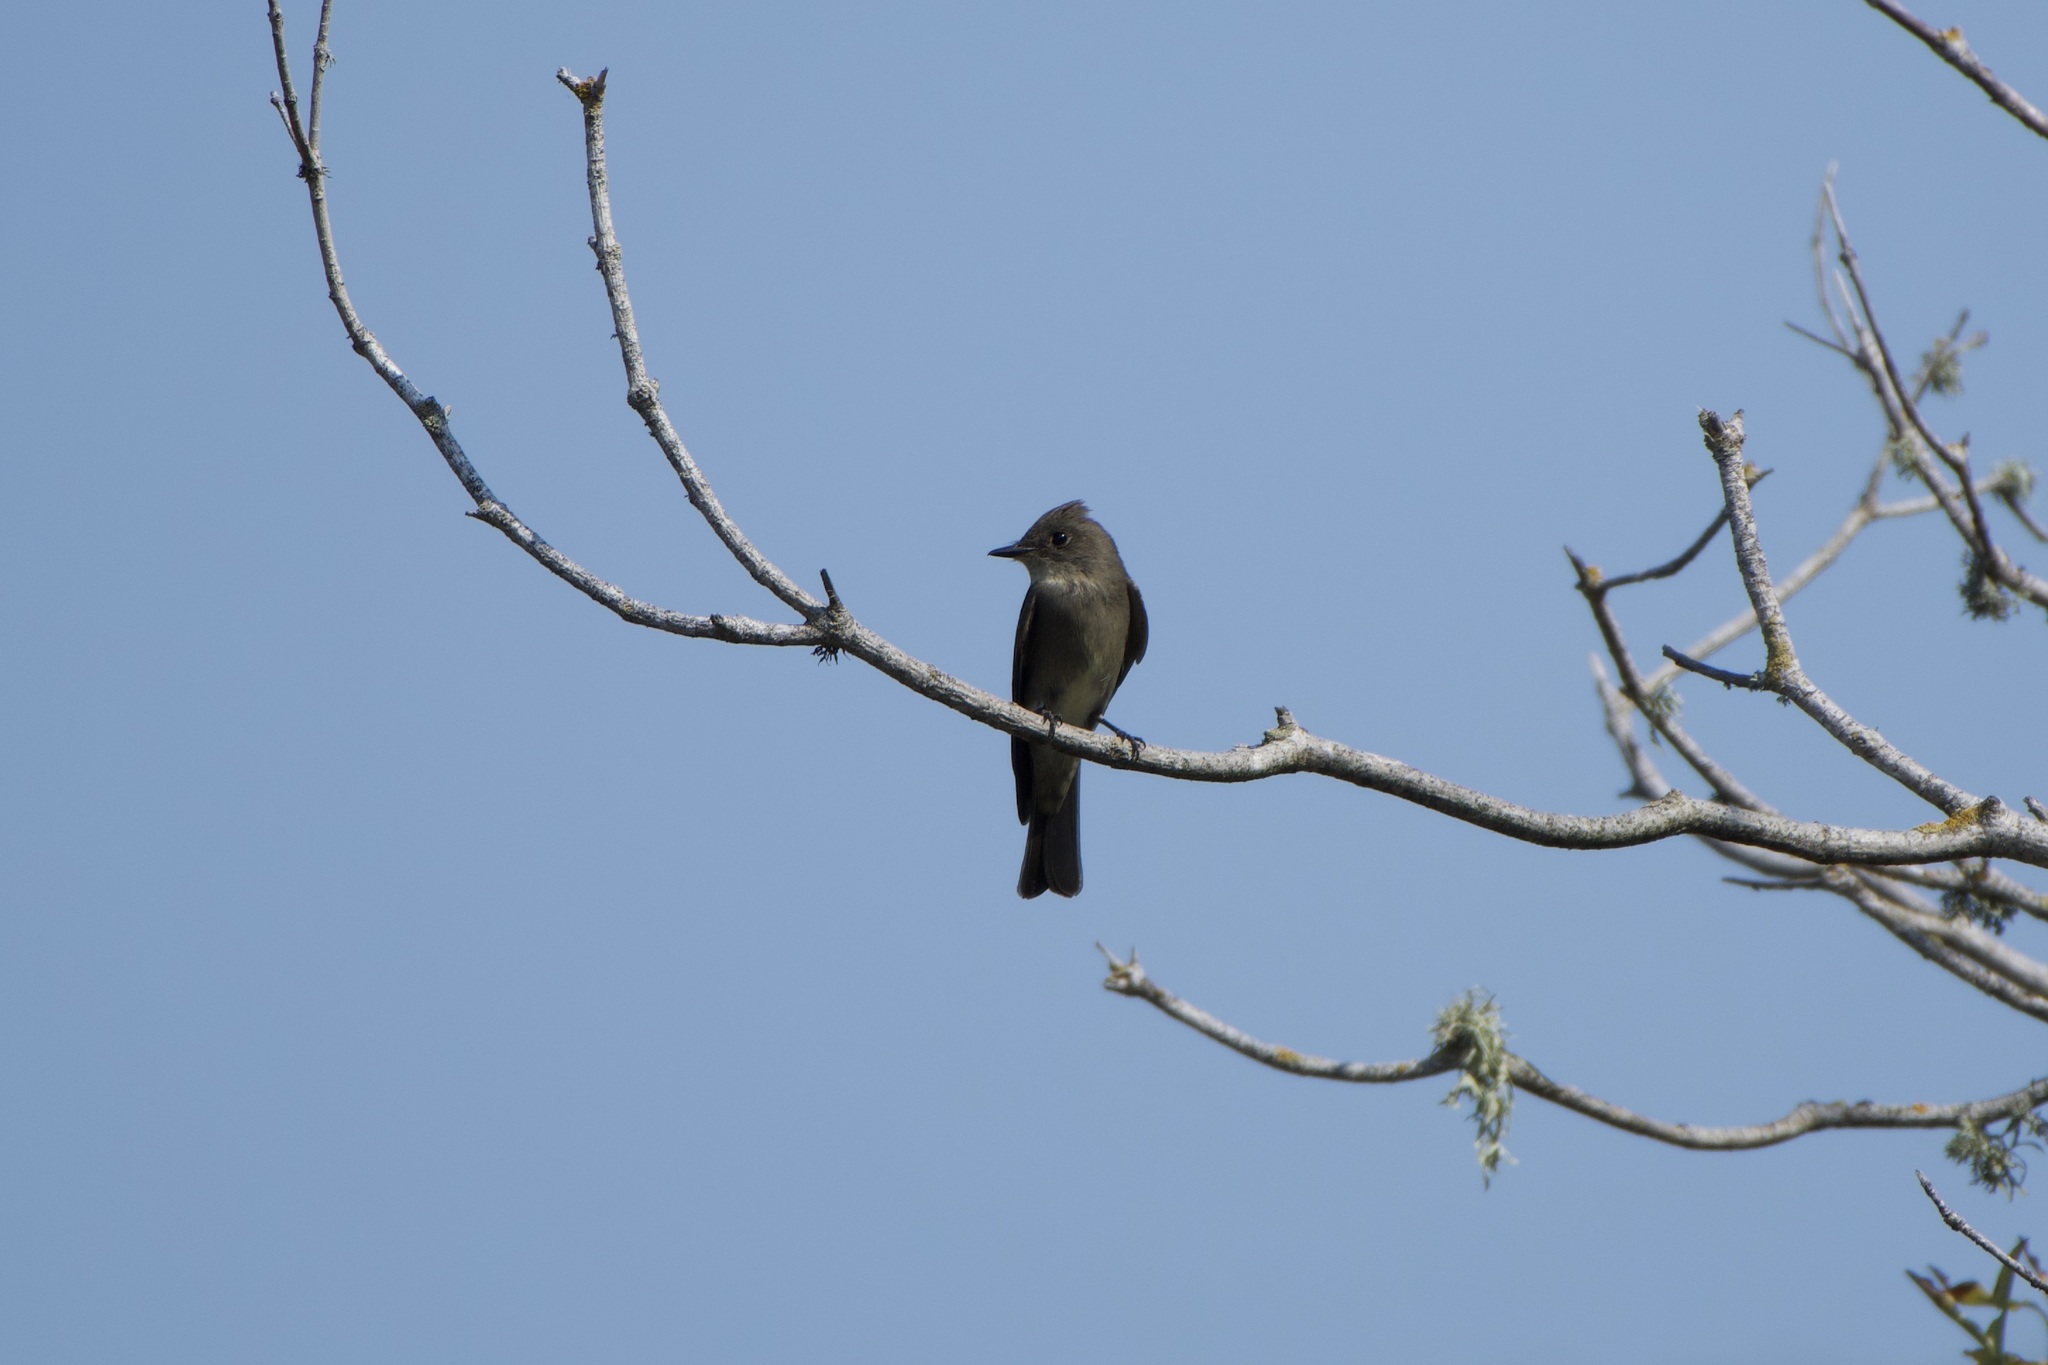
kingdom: Animalia
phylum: Chordata
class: Aves
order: Passeriformes
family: Tyrannidae
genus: Contopus
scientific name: Contopus sordidulus
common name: Western wood-pewee
